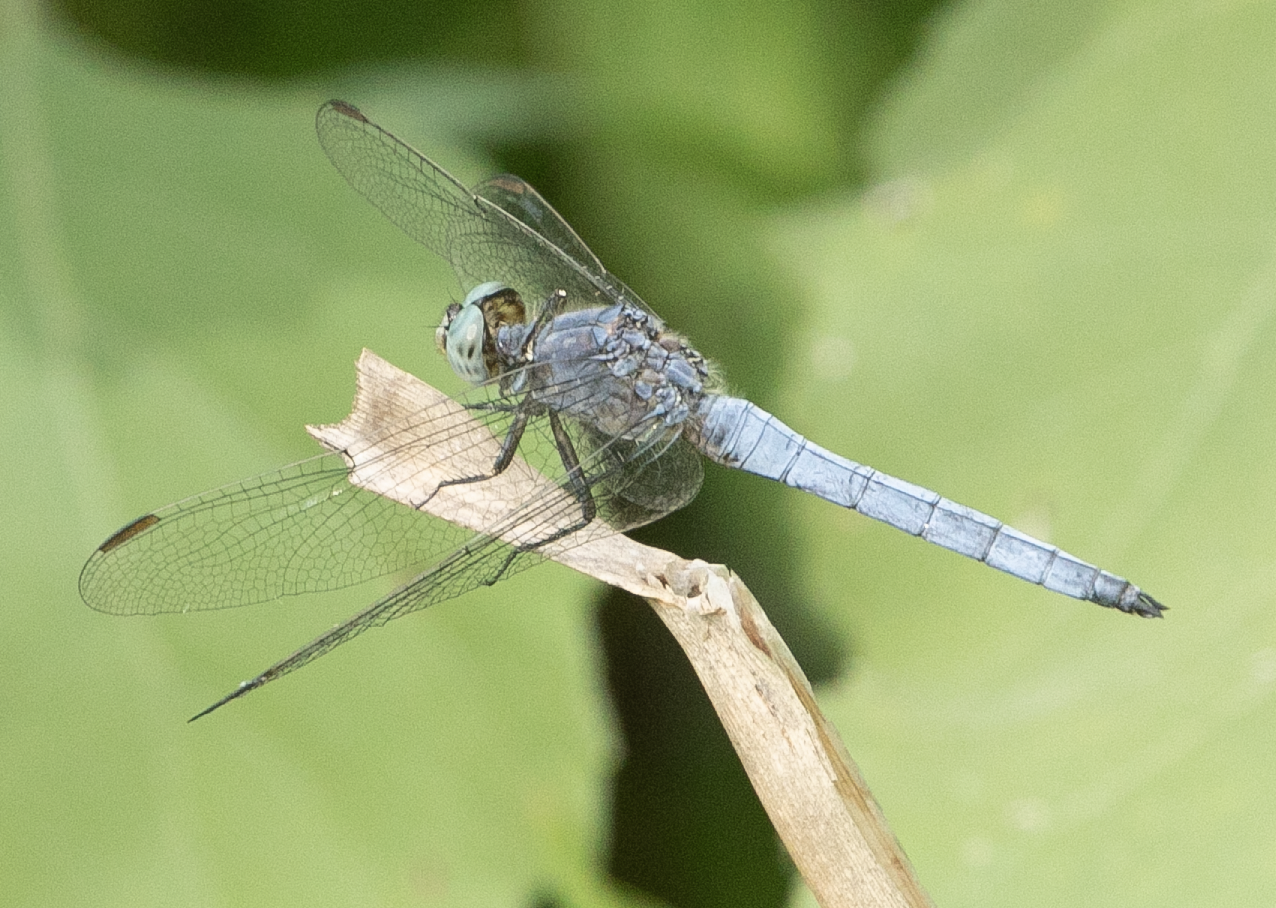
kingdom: Animalia
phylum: Arthropoda
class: Insecta
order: Odonata
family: Libellulidae
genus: Orthetrum
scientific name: Orthetrum coerulescens
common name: Keeled skimmer
